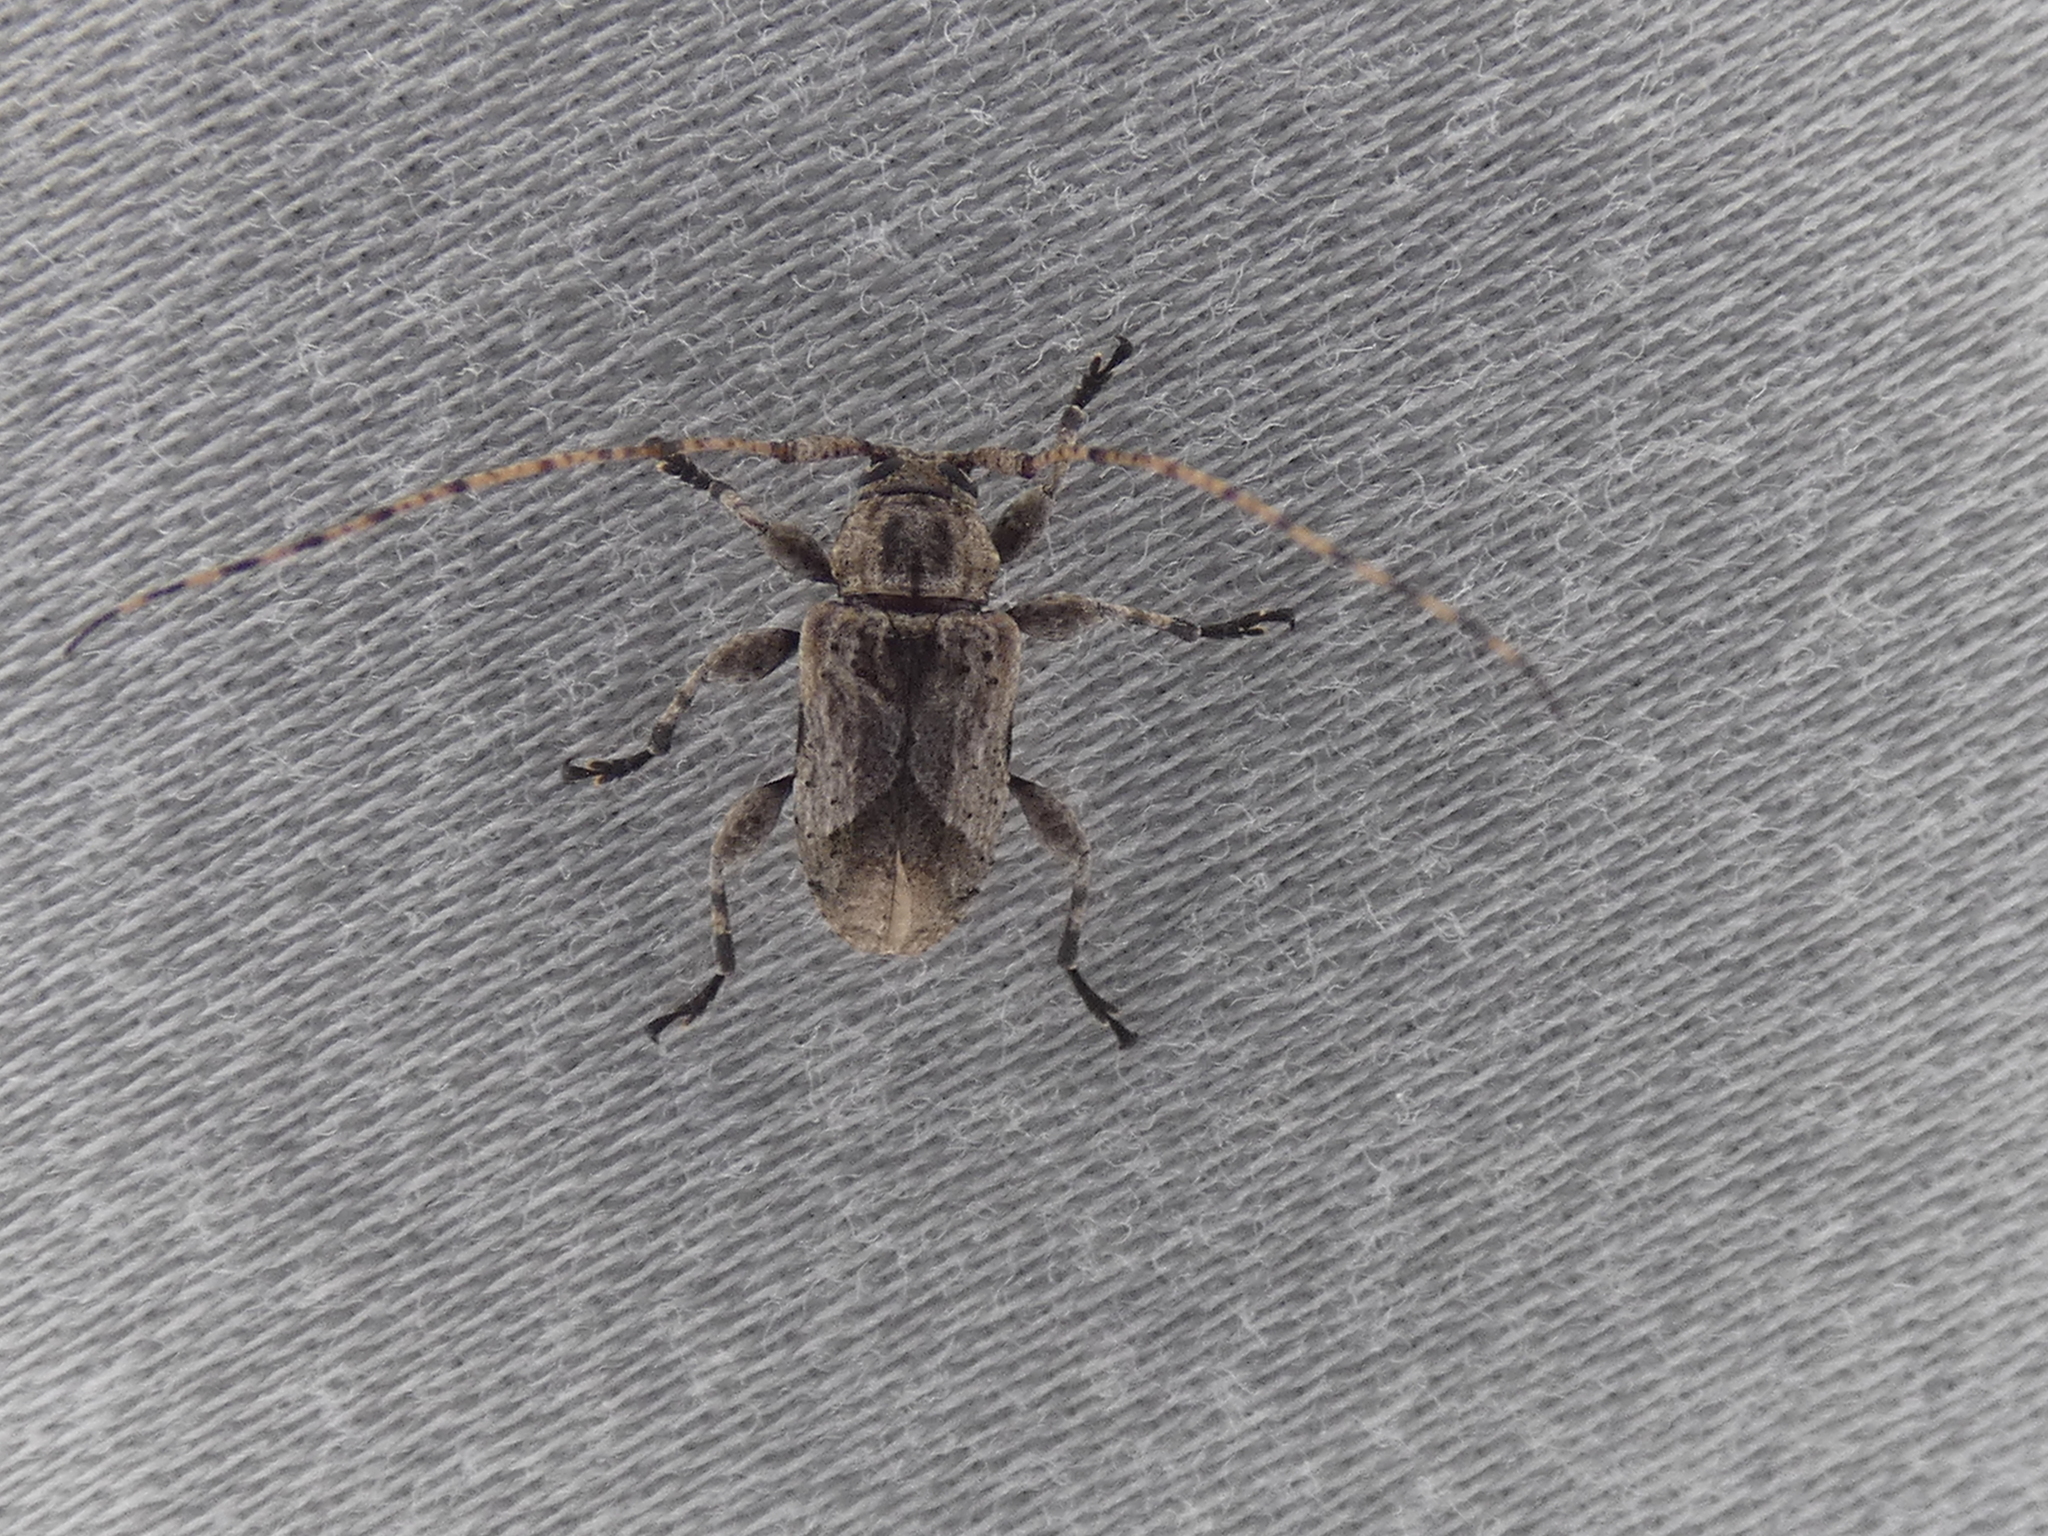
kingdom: Animalia
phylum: Arthropoda
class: Insecta
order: Coleoptera
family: Cerambycidae
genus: Styloleptus
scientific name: Styloleptus biustus
